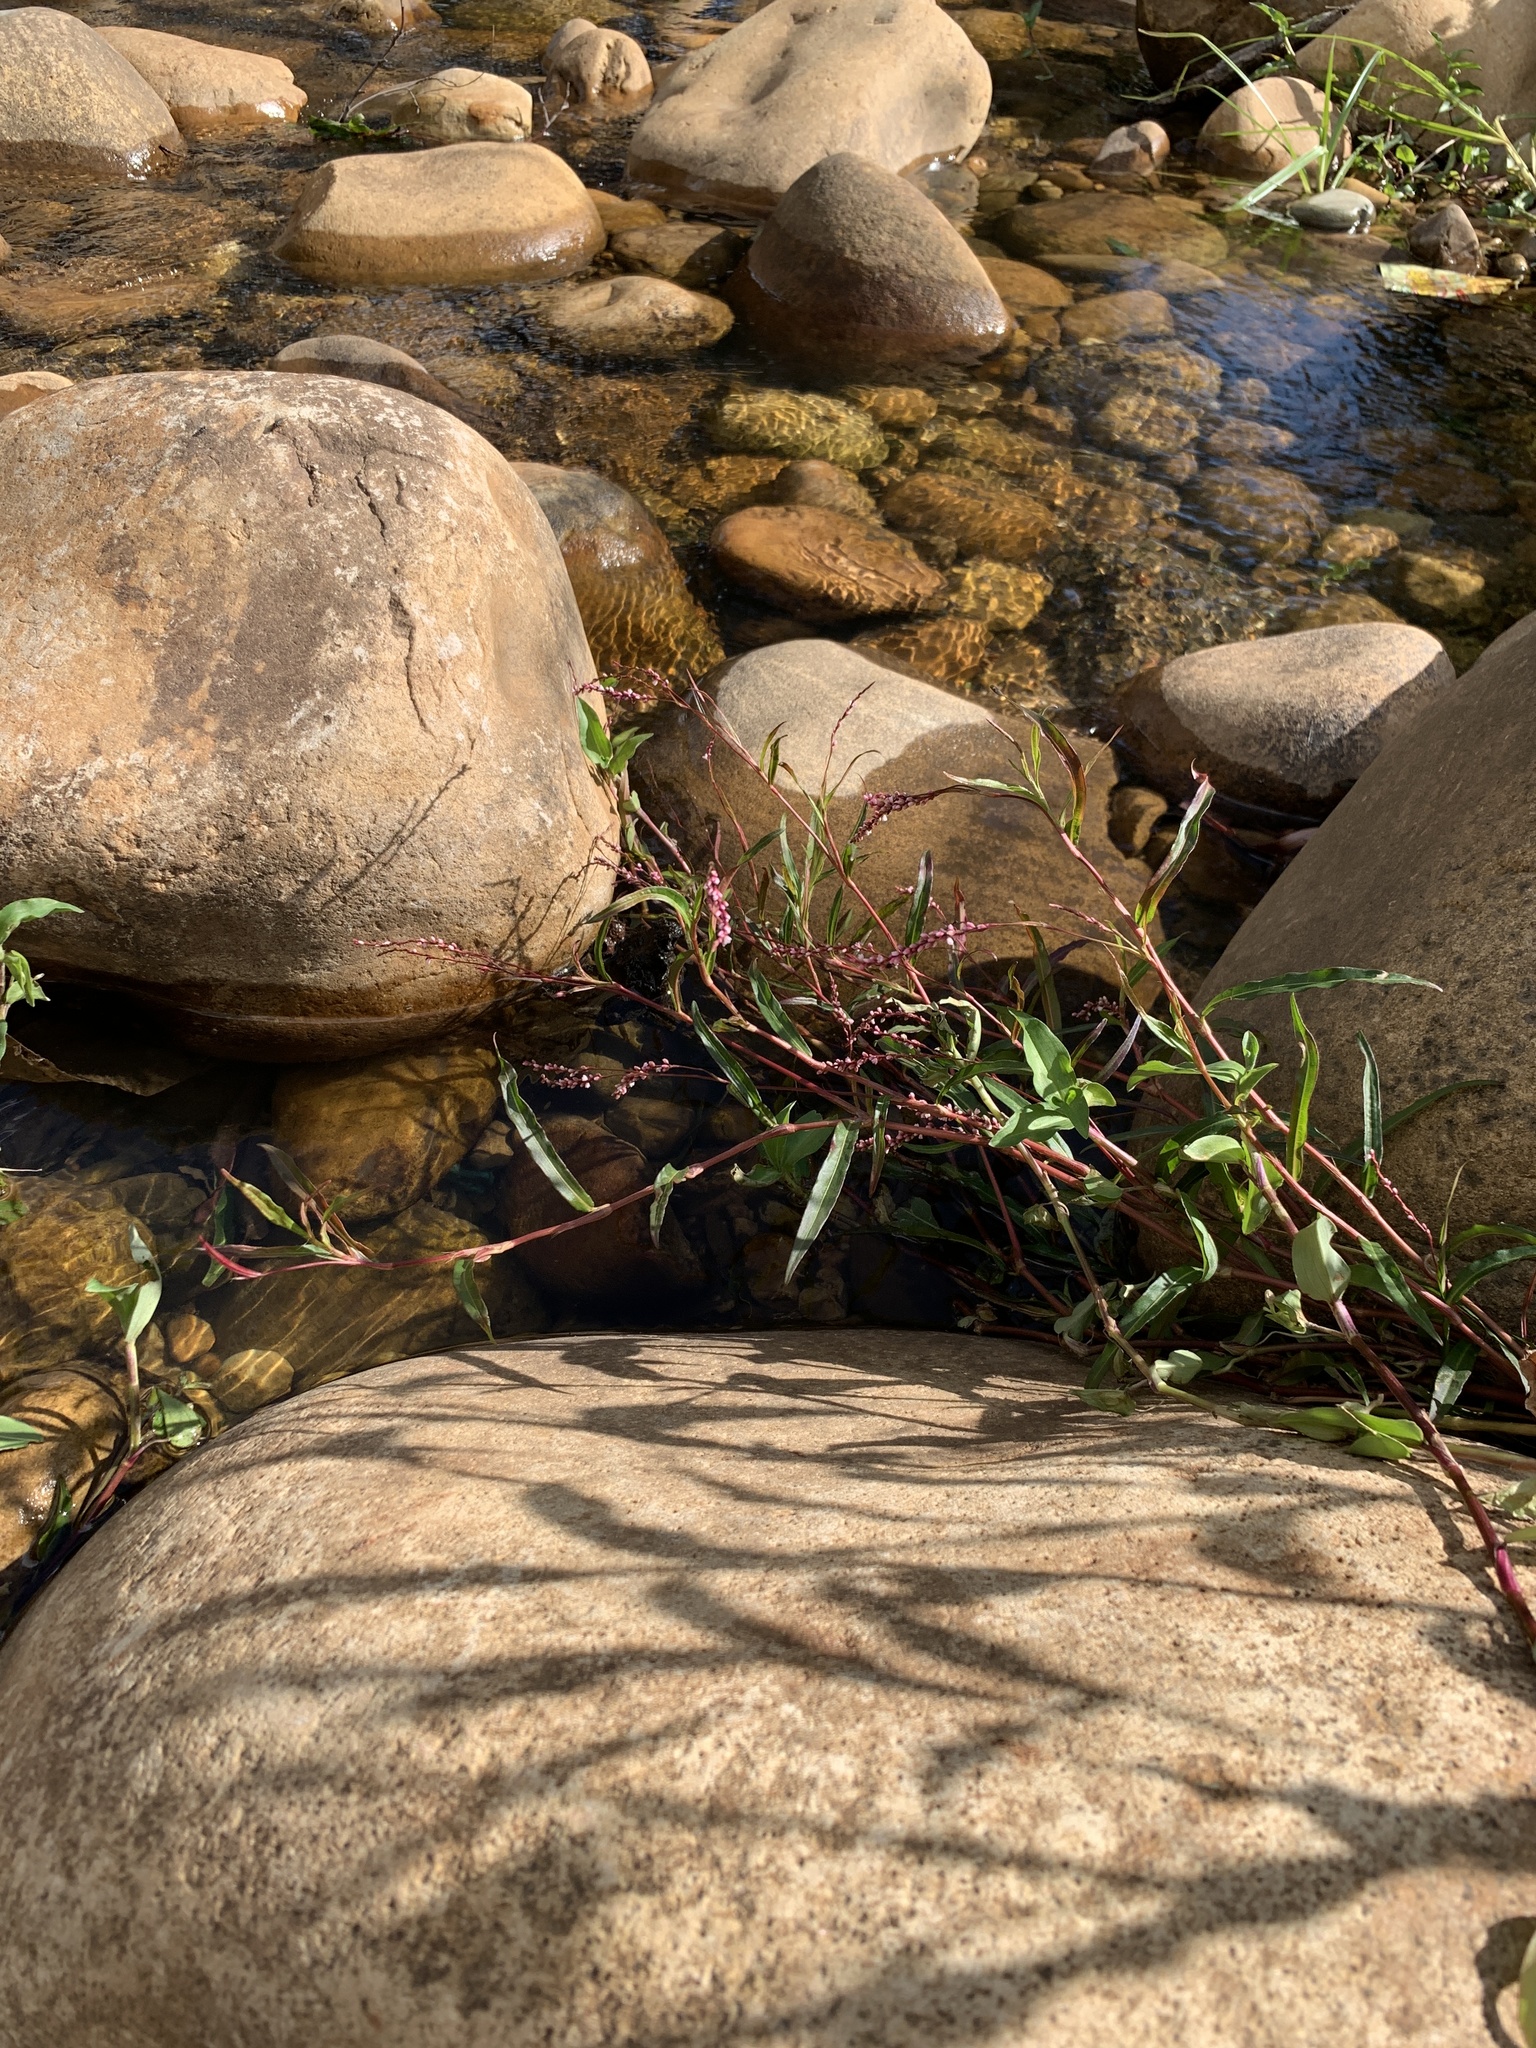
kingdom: Plantae
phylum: Tracheophyta
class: Magnoliopsida
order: Caryophyllales
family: Polygonaceae
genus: Persicaria
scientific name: Persicaria decipiens
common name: Willow-weed
